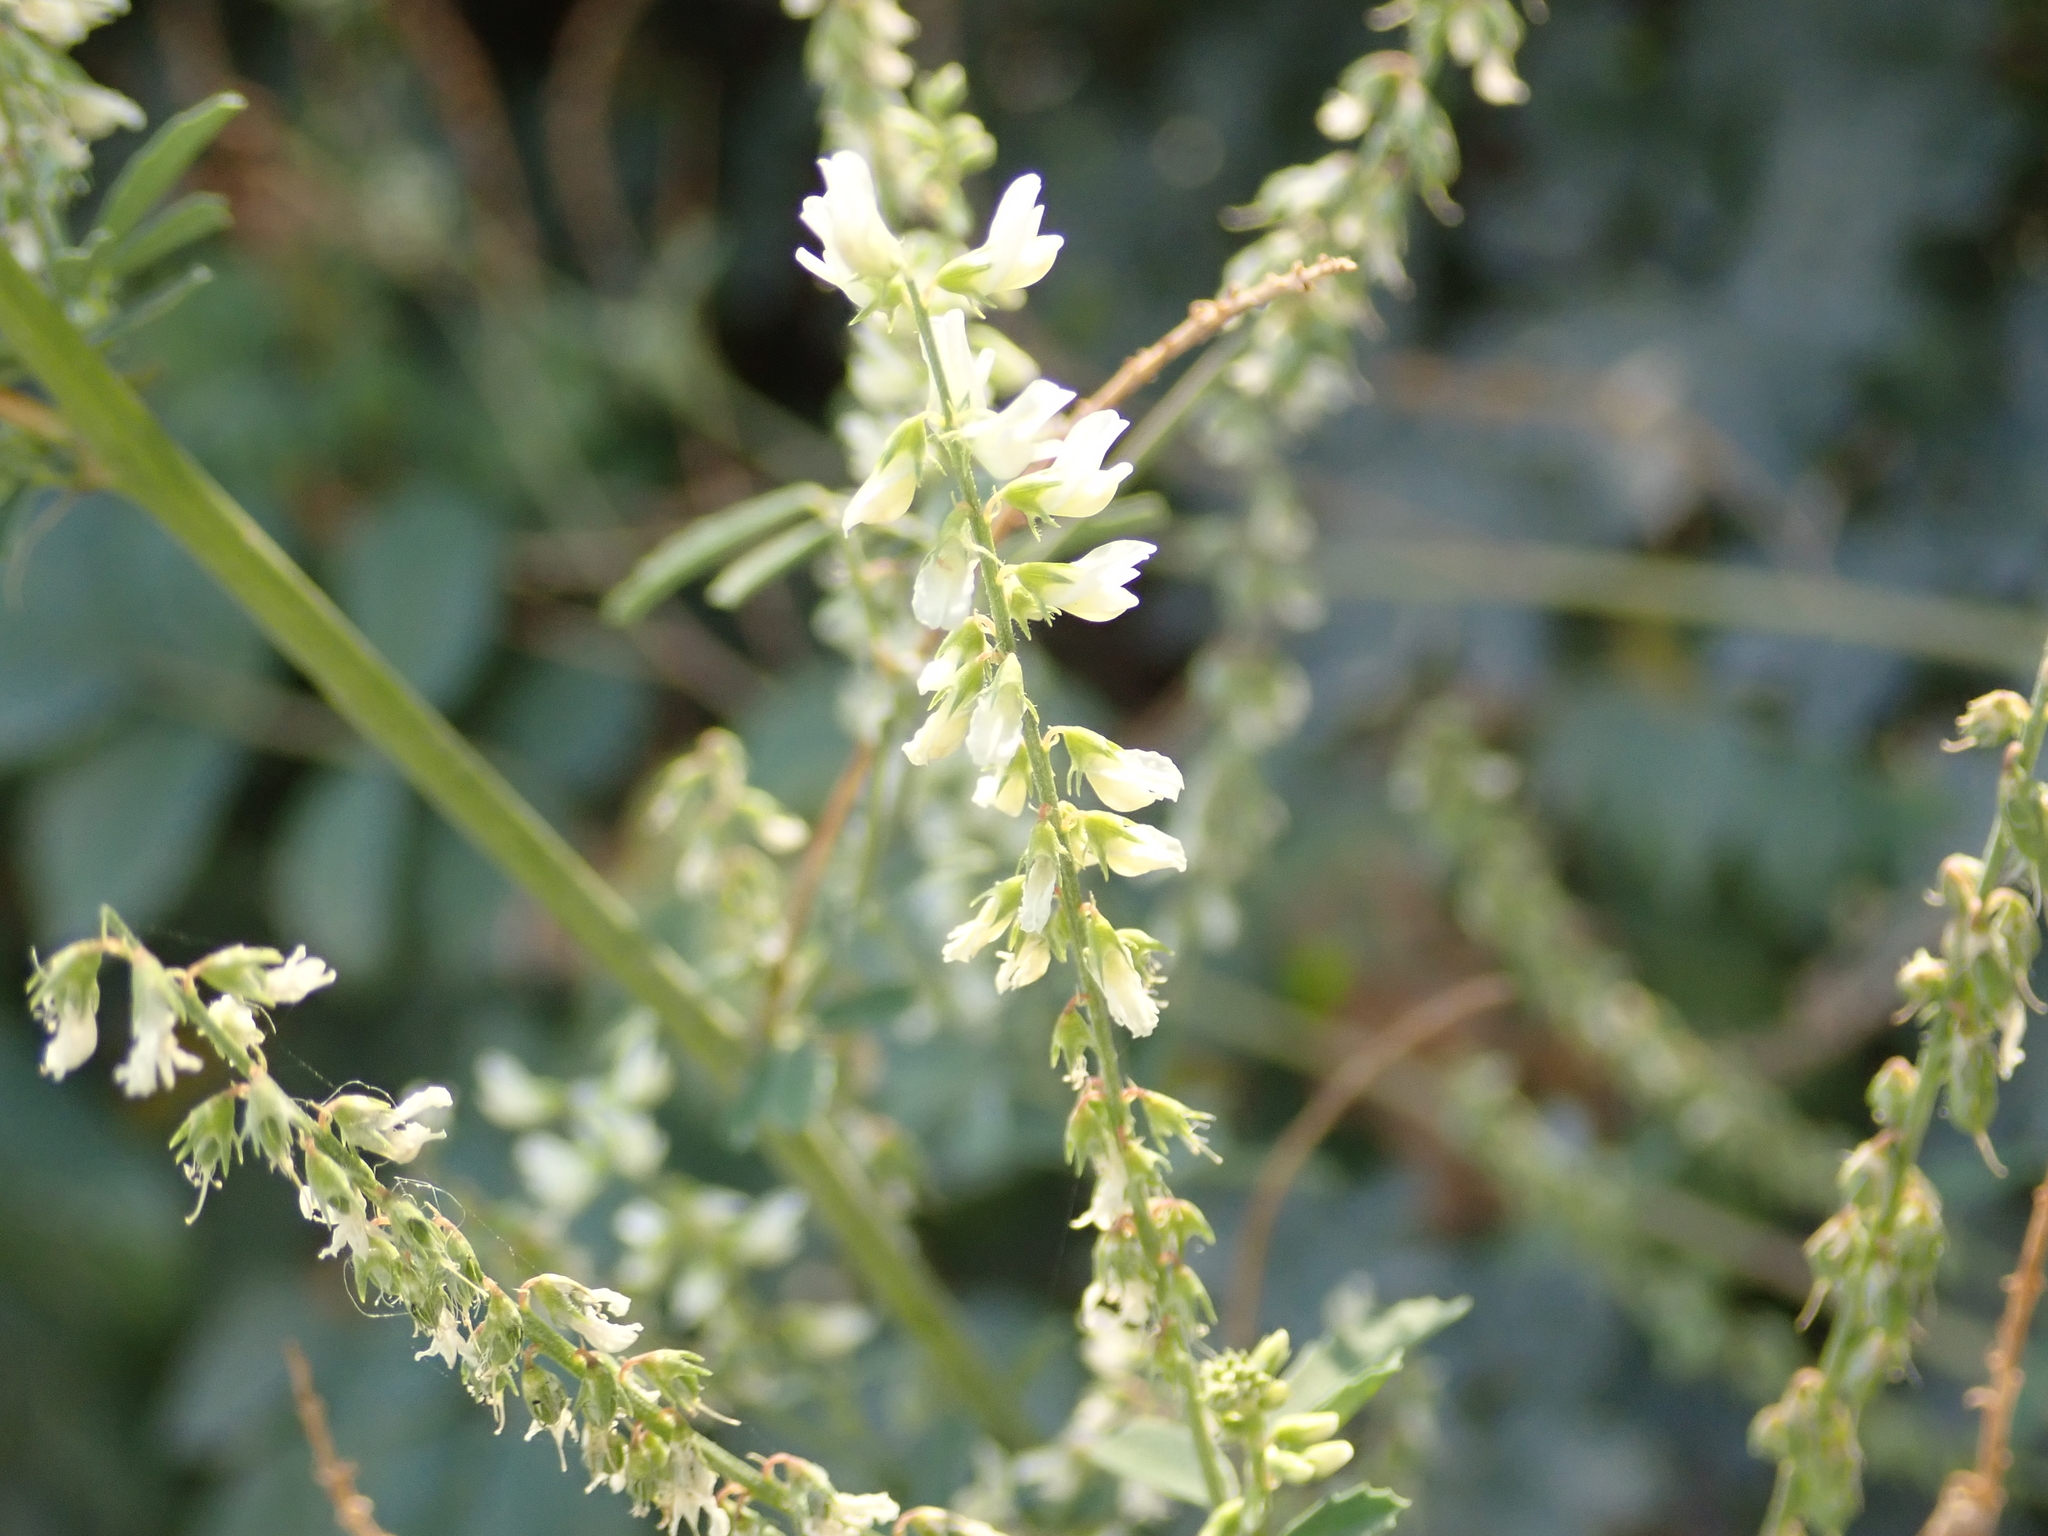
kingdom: Plantae
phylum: Tracheophyta
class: Magnoliopsida
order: Fabales
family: Fabaceae
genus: Melilotus
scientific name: Melilotus albus
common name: White melilot
